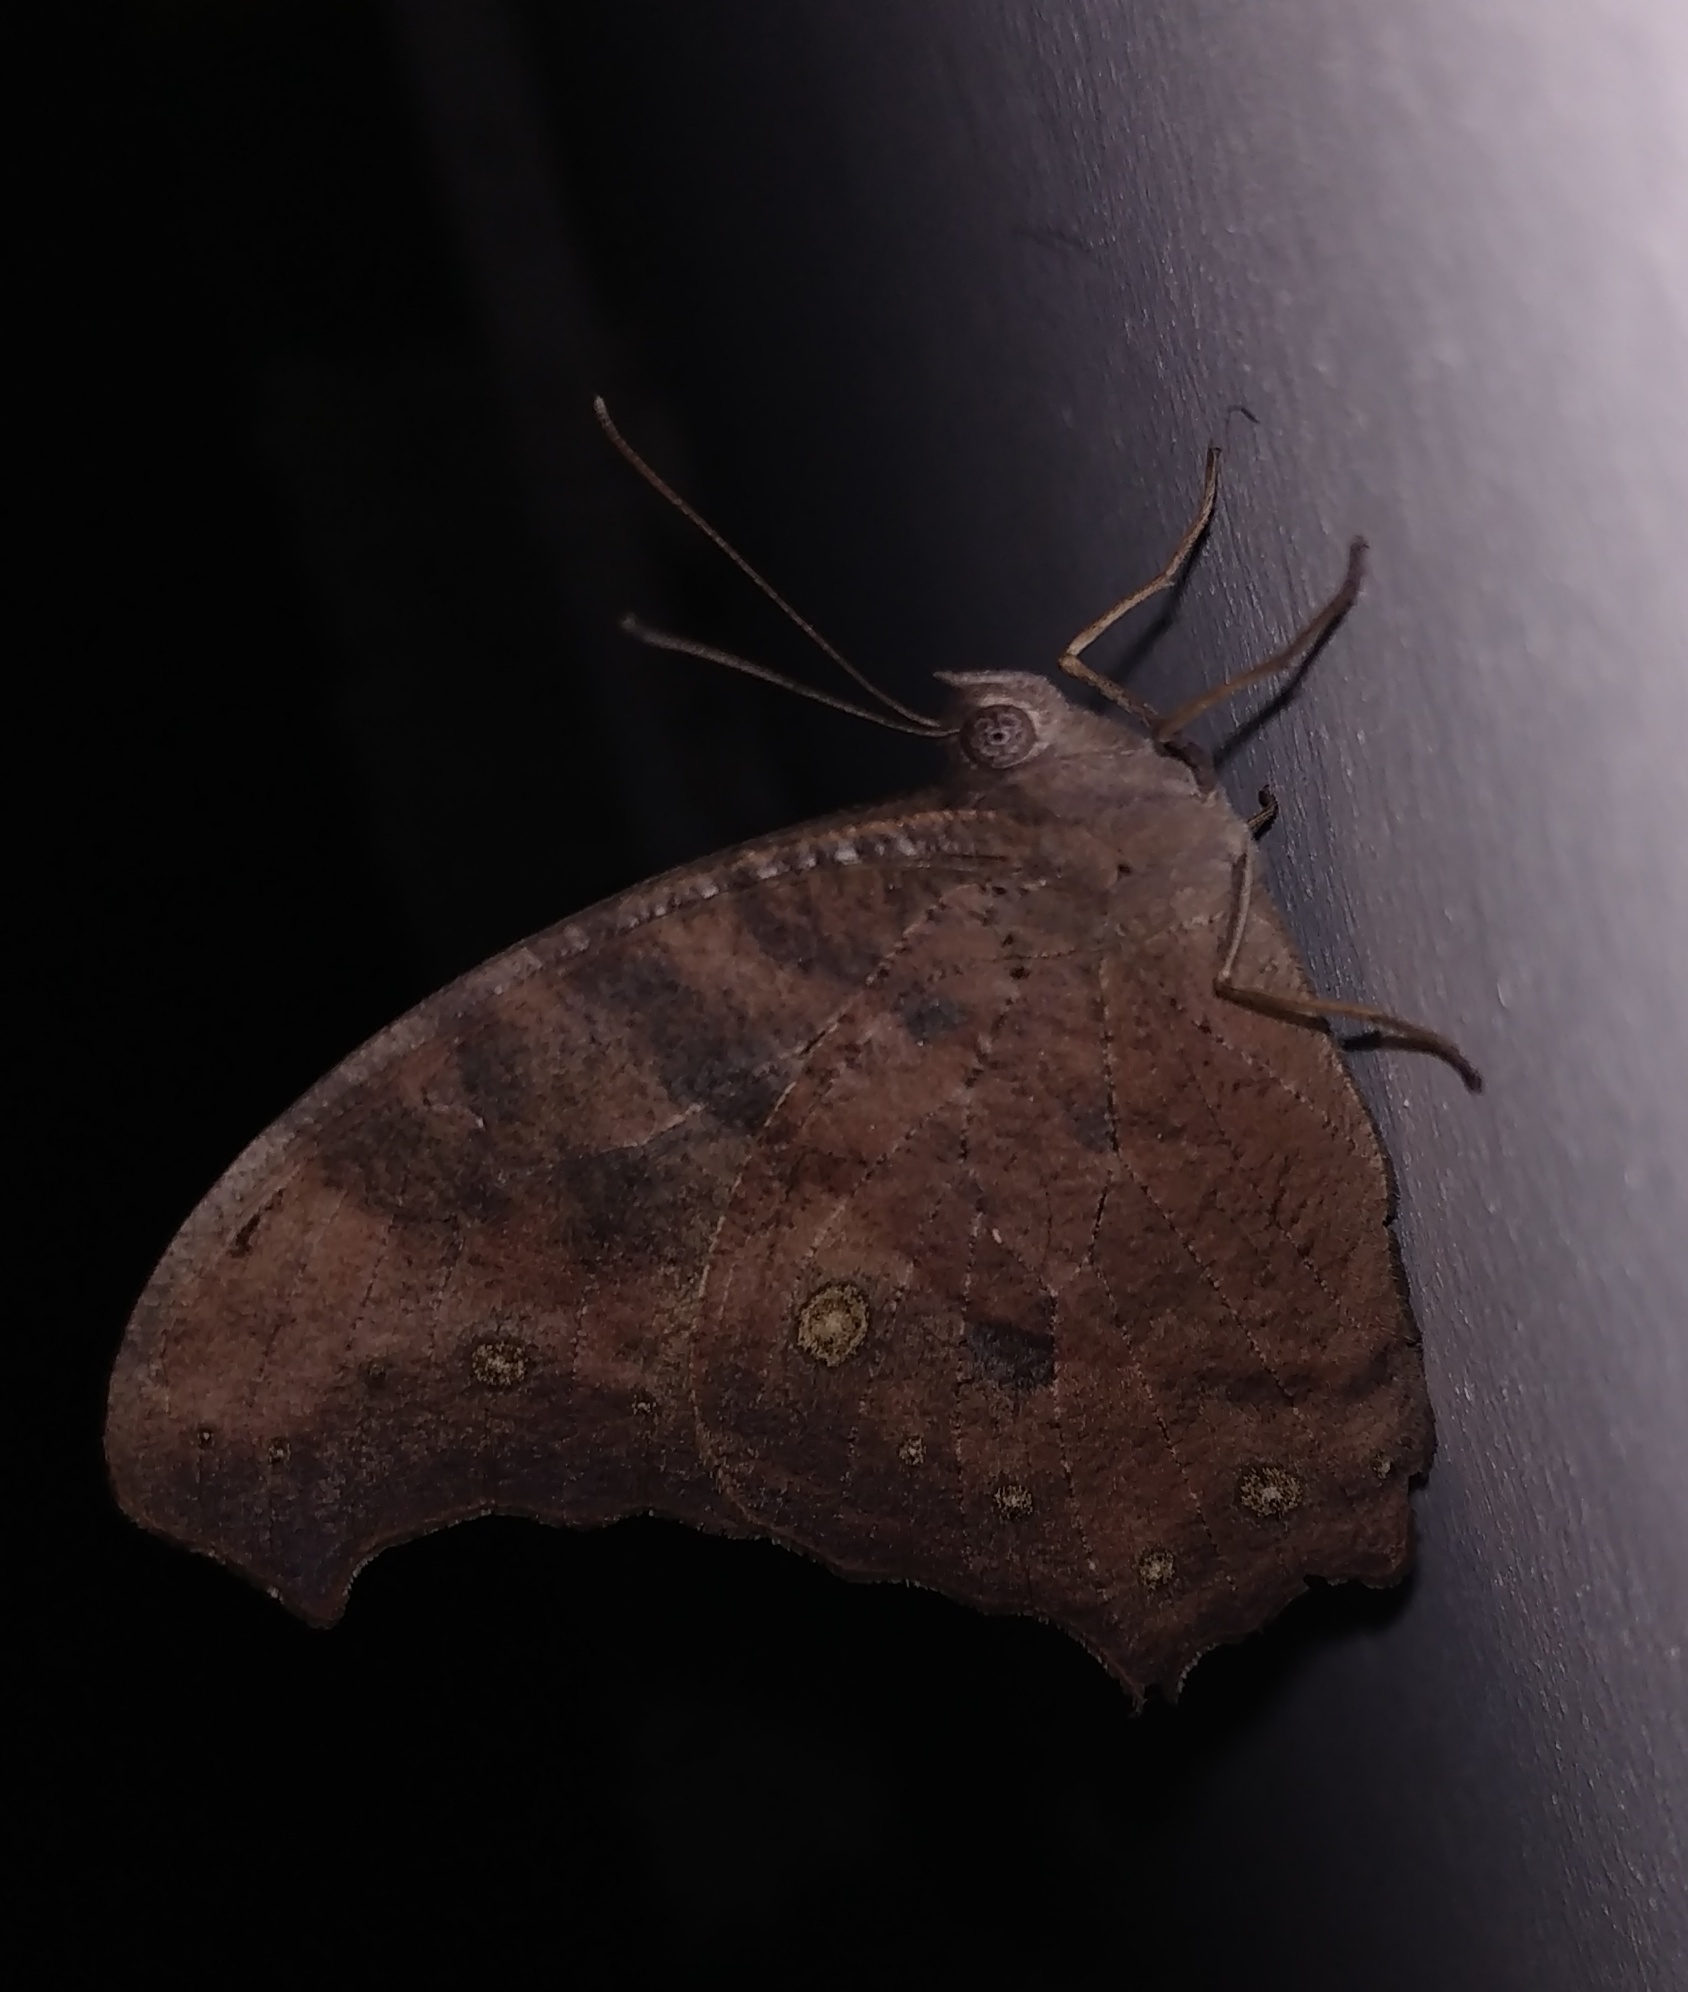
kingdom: Animalia
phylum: Arthropoda
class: Insecta
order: Lepidoptera
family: Nymphalidae
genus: Melanitis
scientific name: Melanitis leda
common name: Twilight brown
